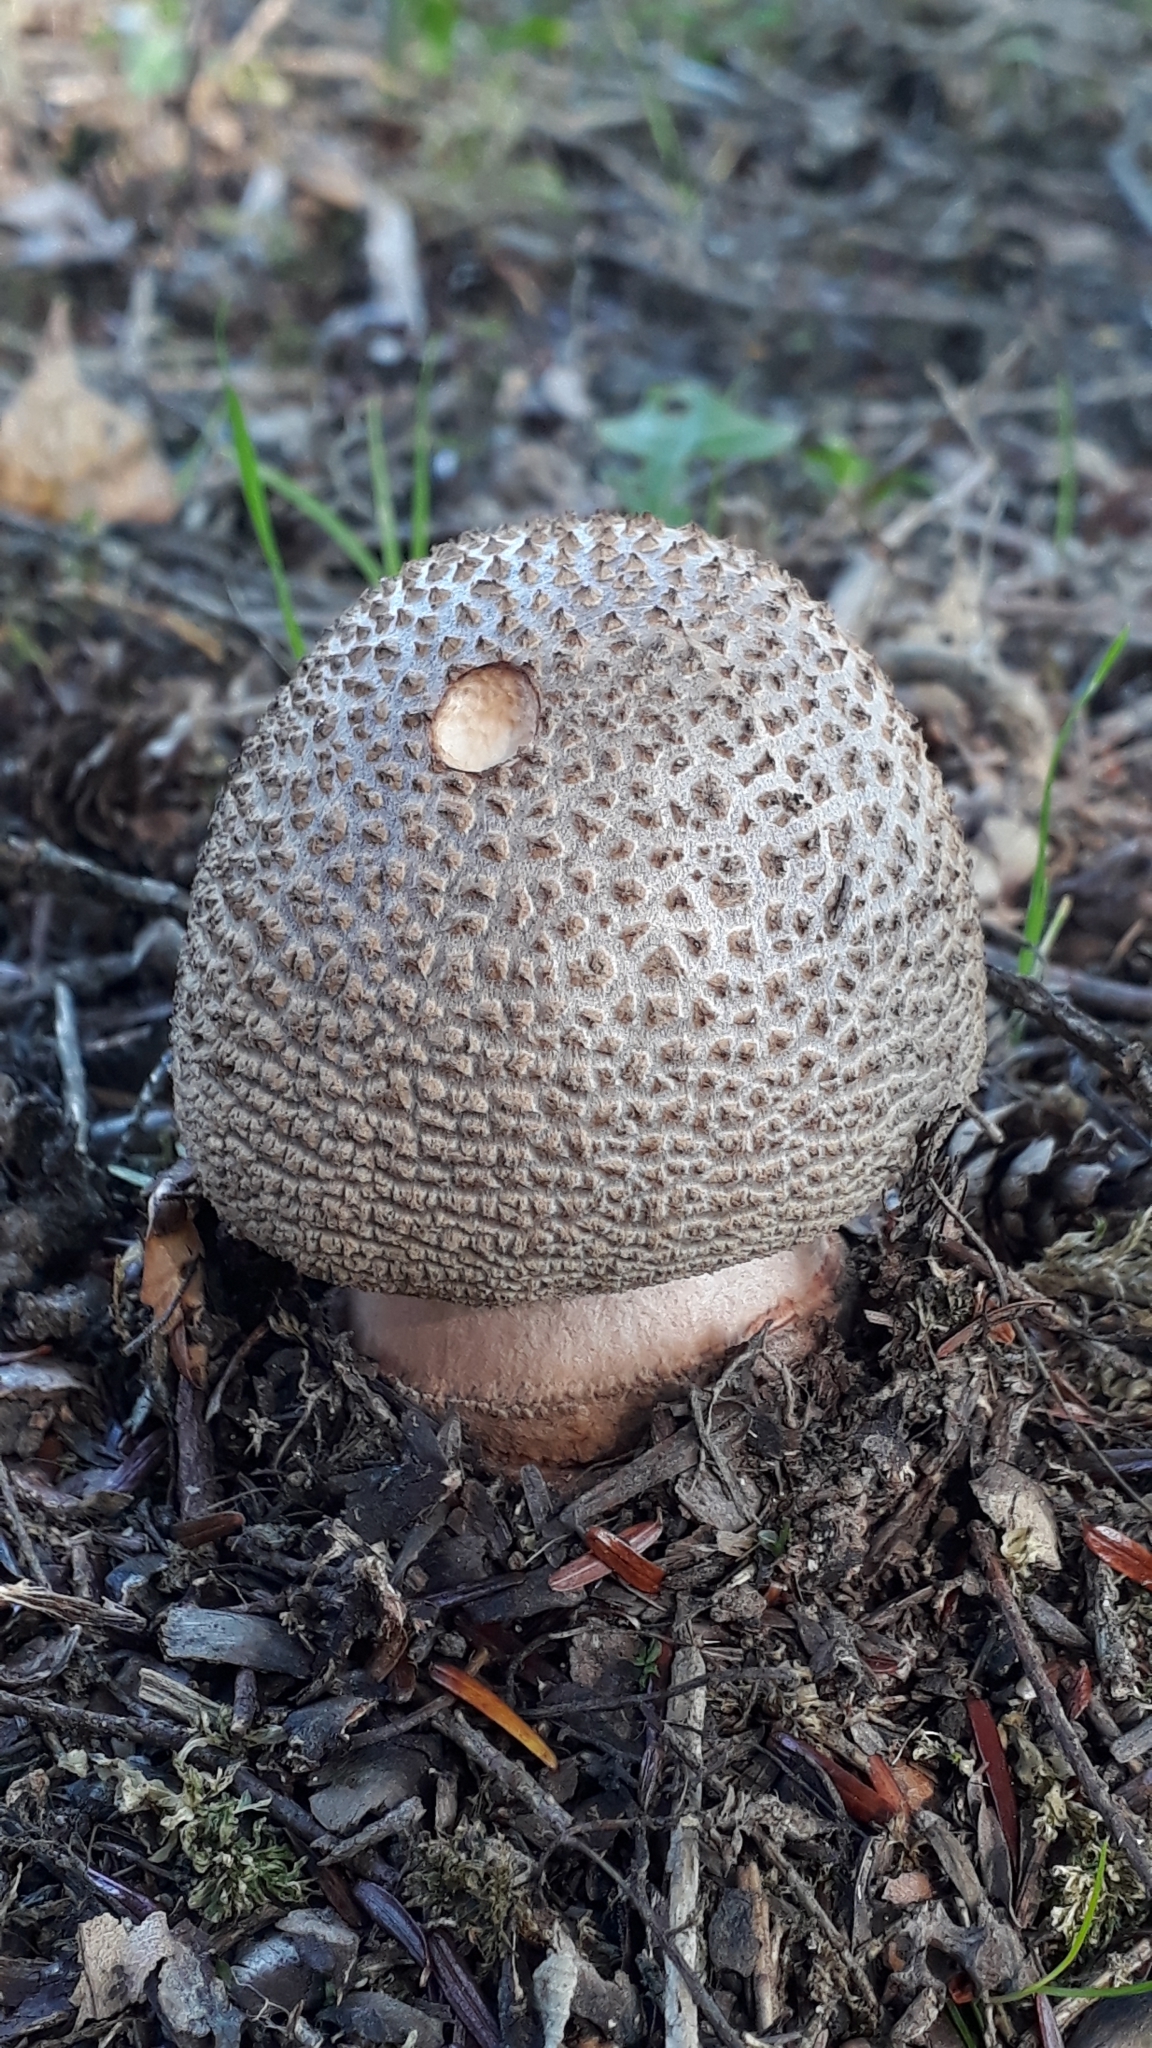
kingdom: Fungi
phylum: Basidiomycota
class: Agaricomycetes
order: Agaricales
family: Amanitaceae
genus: Amanita
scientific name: Amanita rubescens
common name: Blusher
